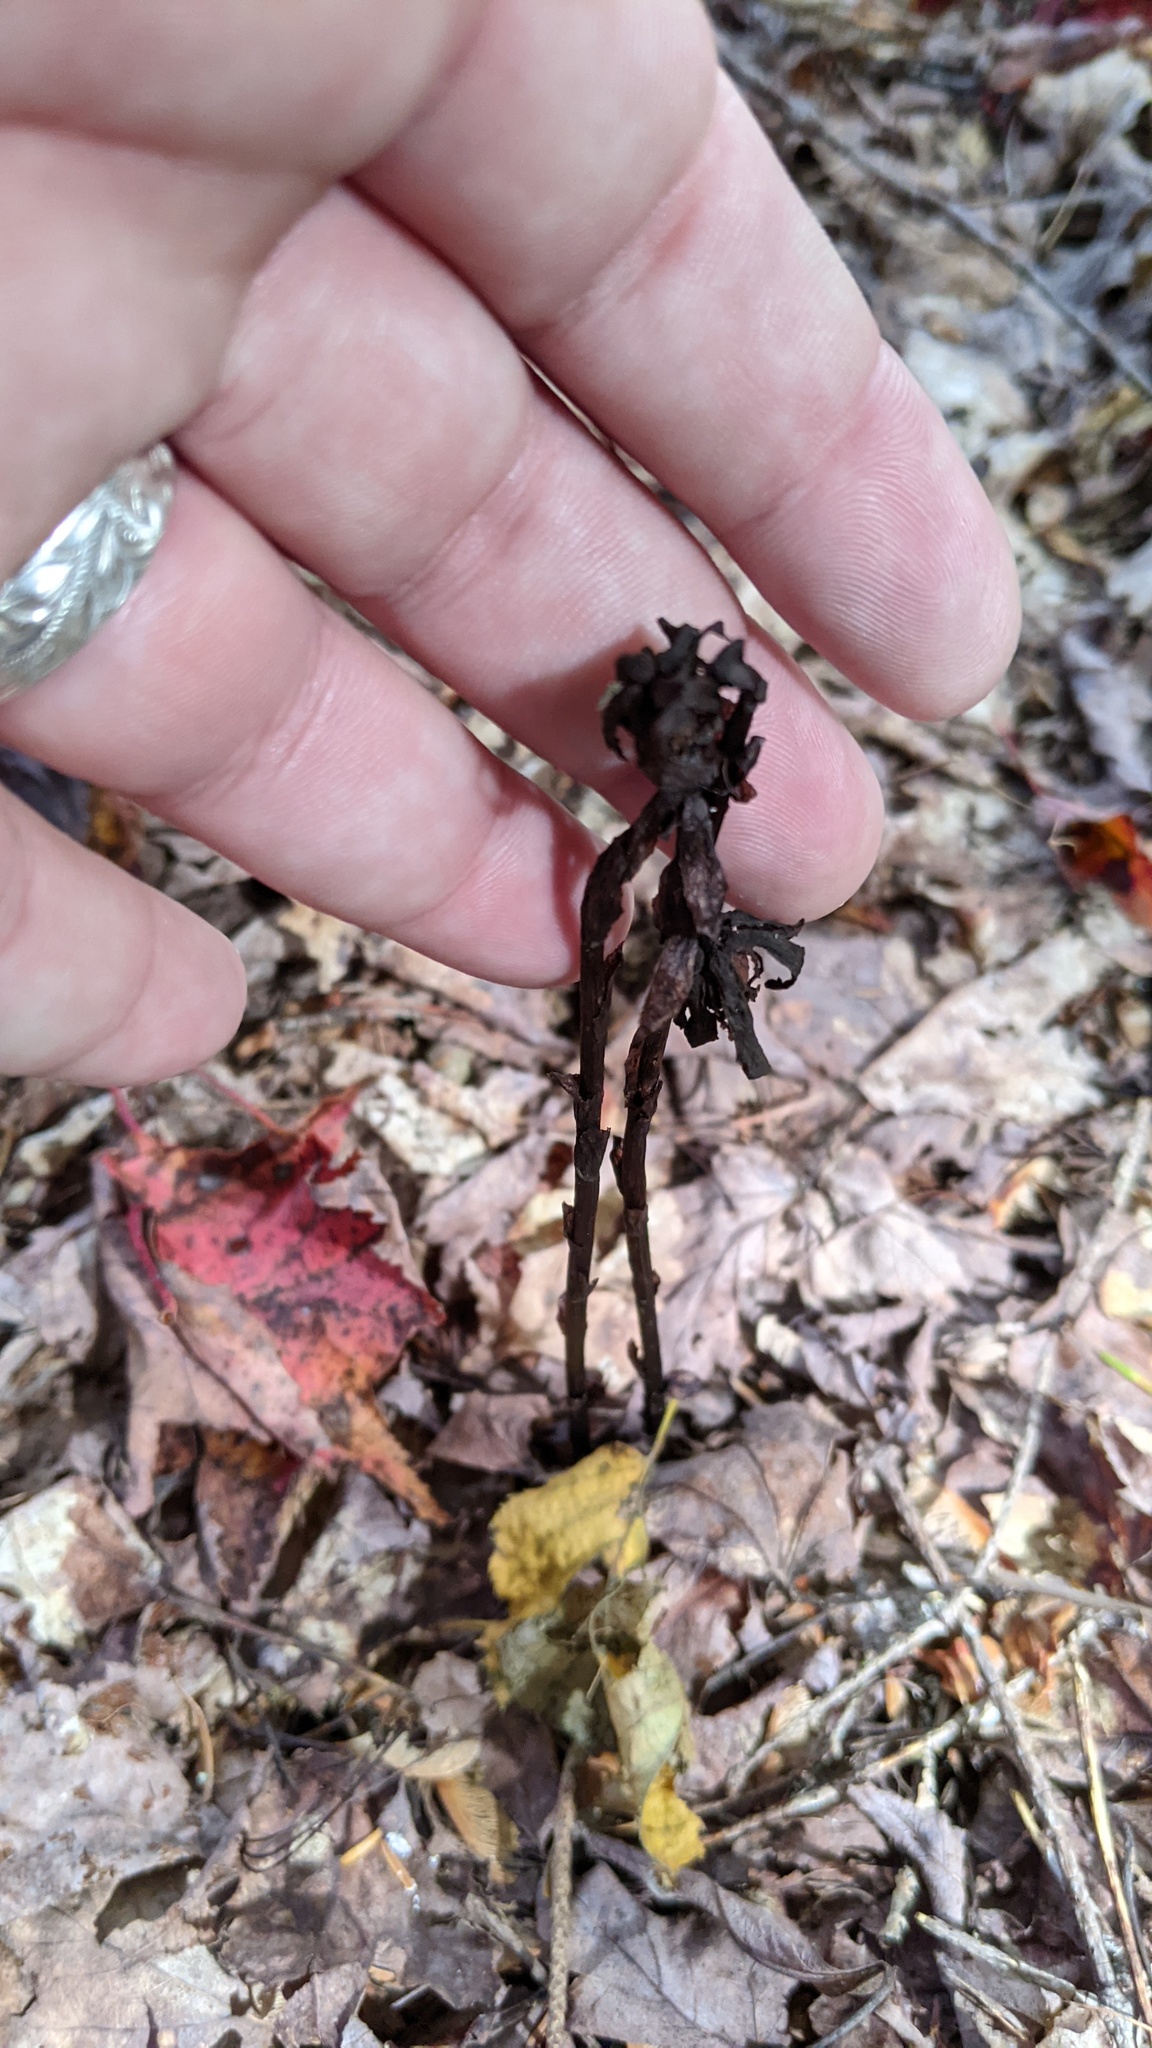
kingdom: Plantae
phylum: Tracheophyta
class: Magnoliopsida
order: Ericales
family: Ericaceae
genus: Monotropa
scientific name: Monotropa uniflora
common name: Convulsion root
